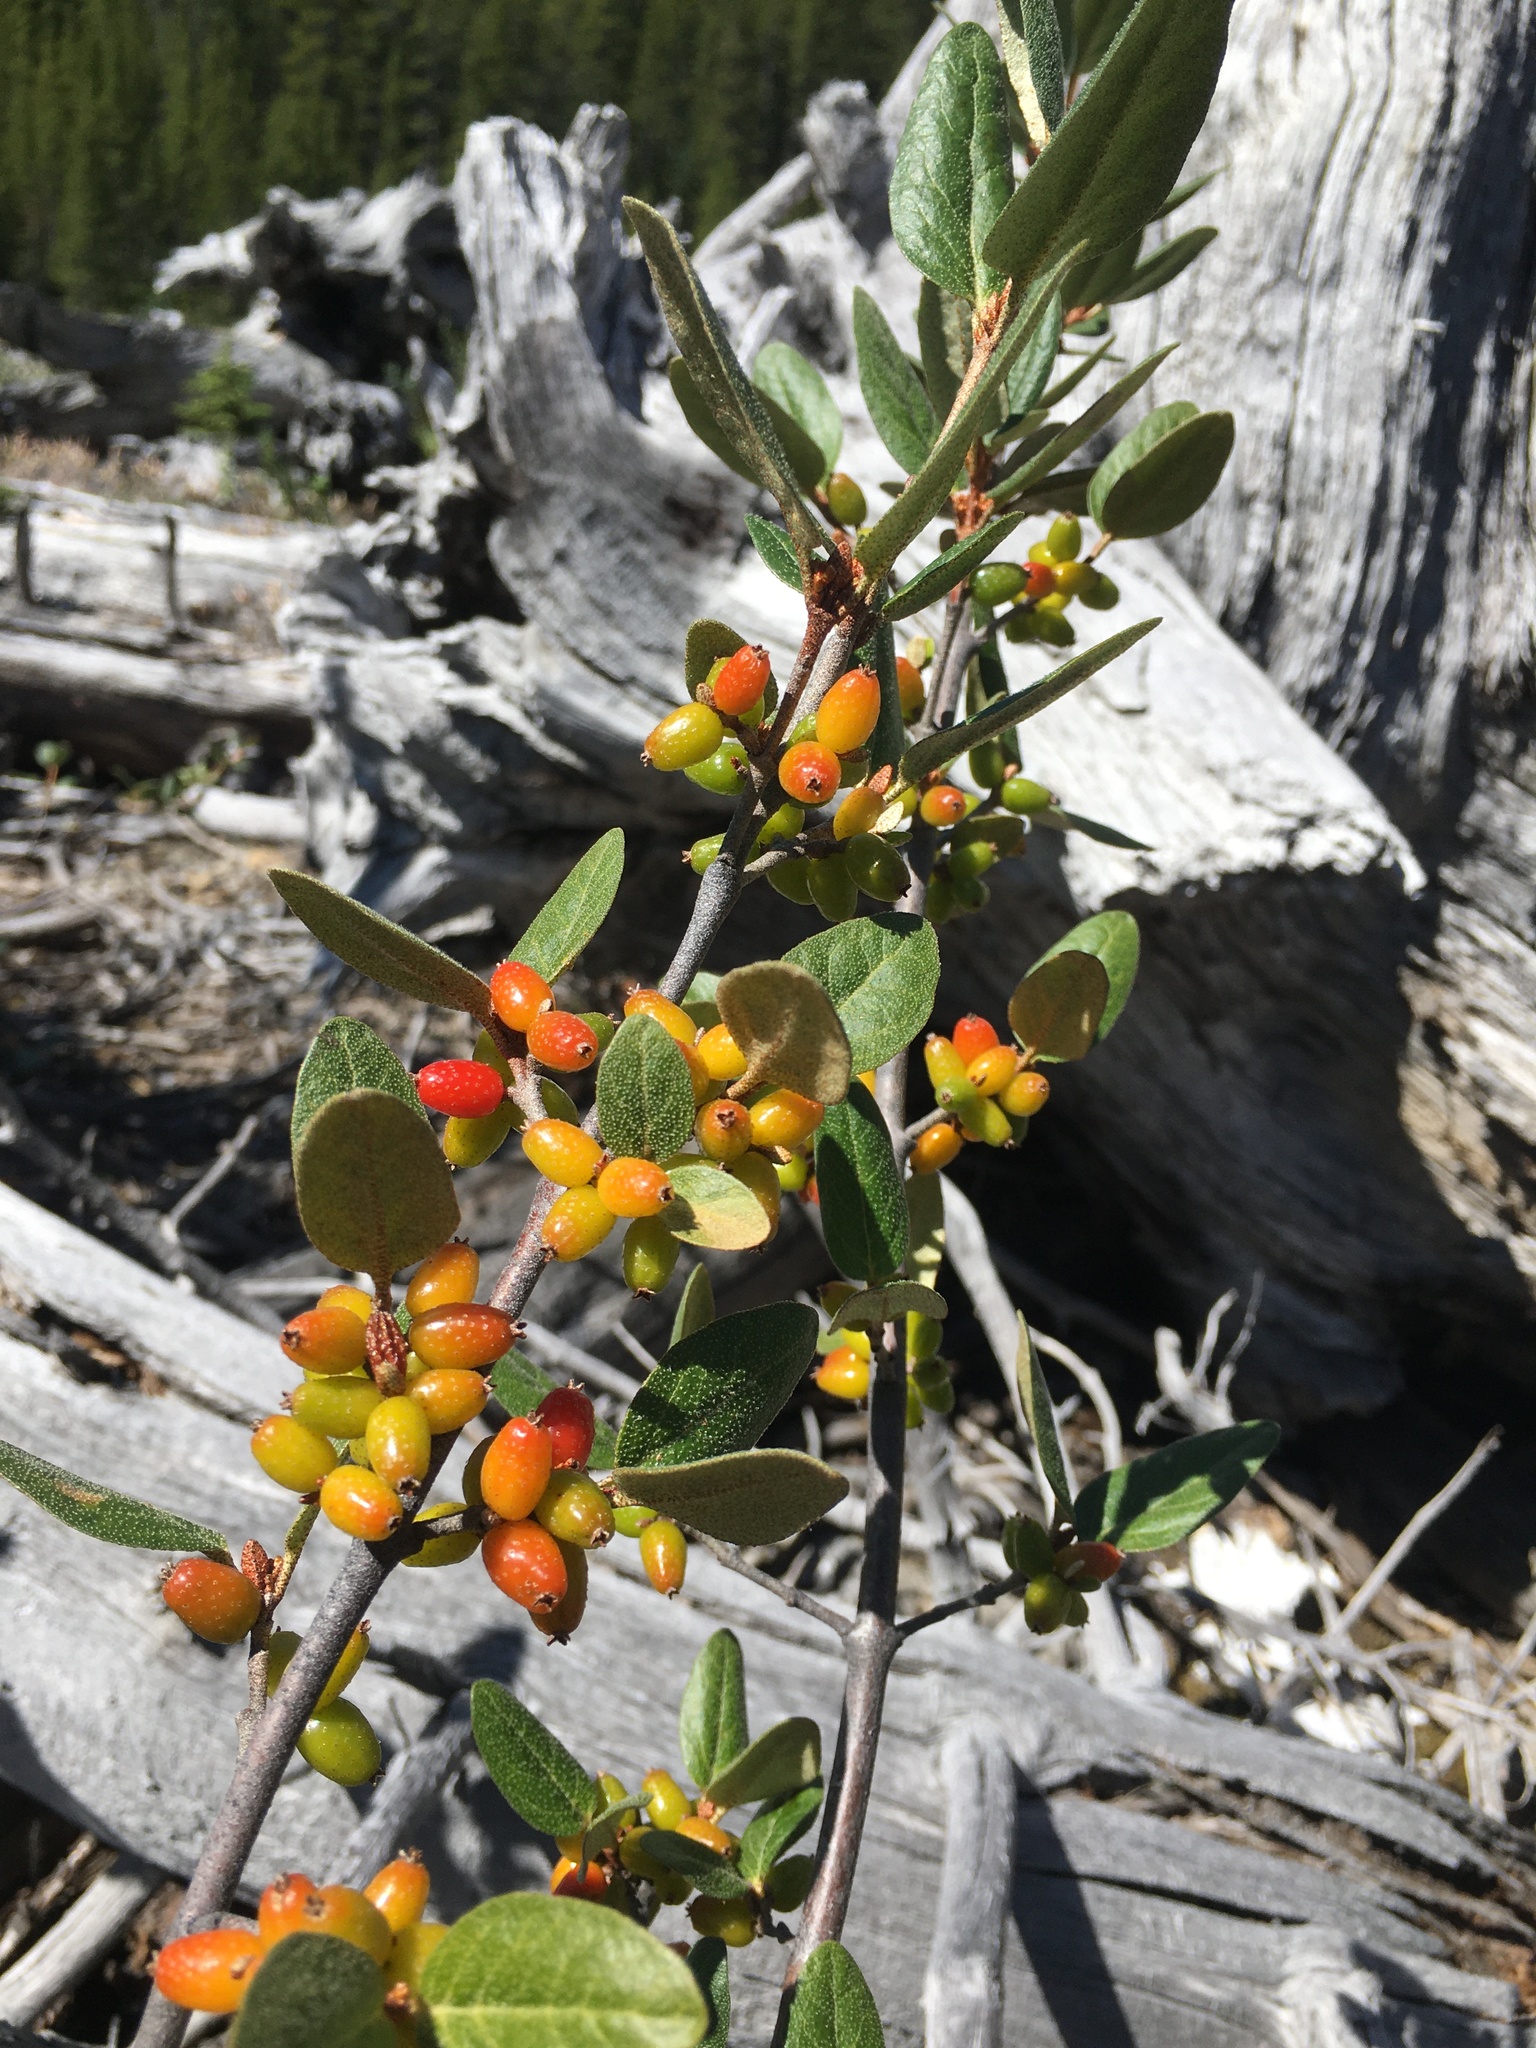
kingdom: Plantae
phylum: Tracheophyta
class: Magnoliopsida
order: Rosales
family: Elaeagnaceae
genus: Shepherdia
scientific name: Shepherdia canadensis
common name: Soapberry
